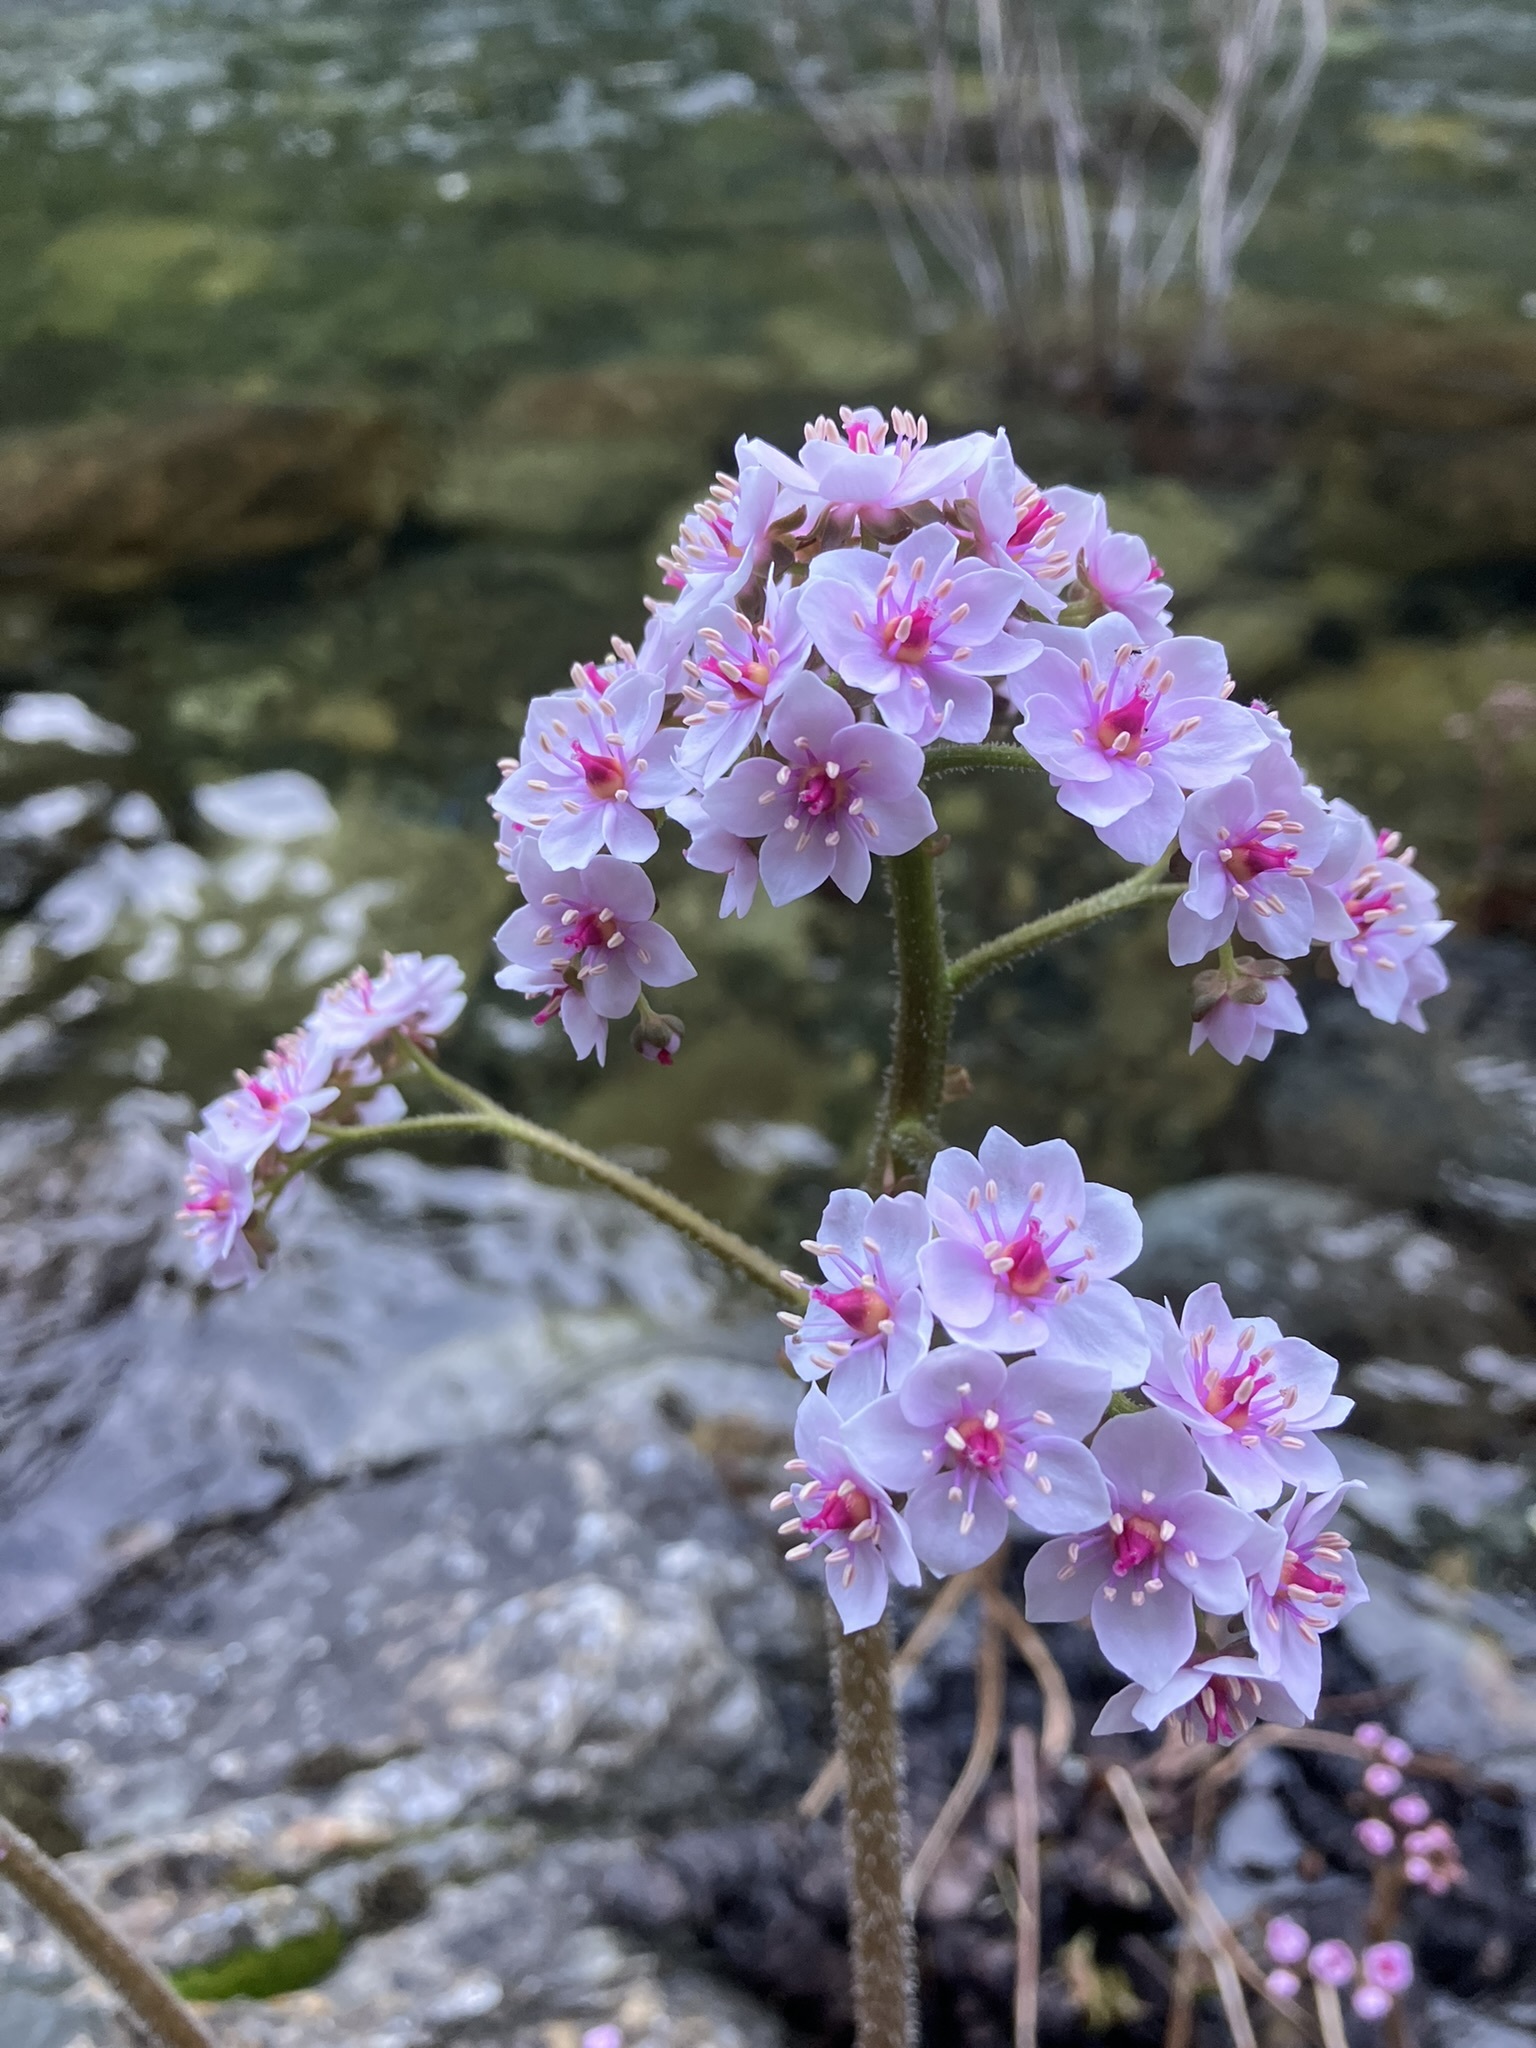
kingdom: Plantae
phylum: Tracheophyta
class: Magnoliopsida
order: Saxifragales
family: Saxifragaceae
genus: Darmera
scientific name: Darmera peltata
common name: Indian-rhubarb
